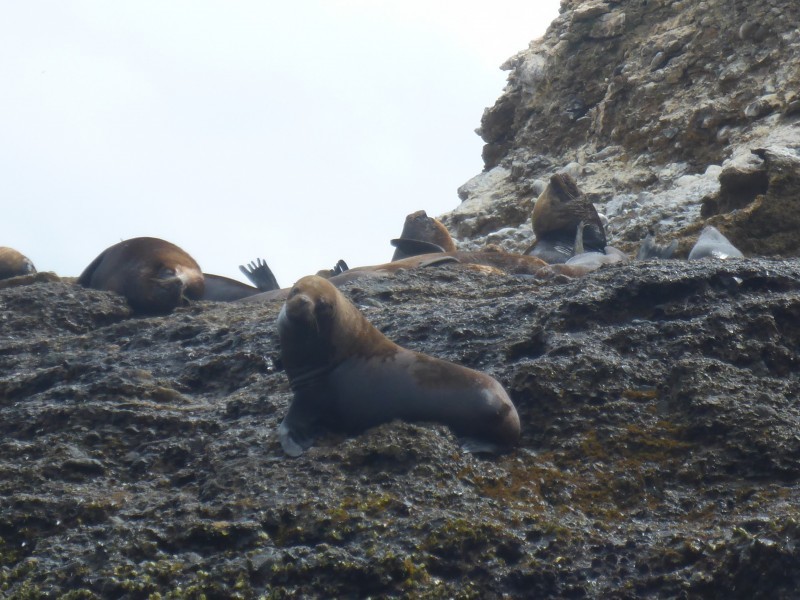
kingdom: Animalia
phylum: Chordata
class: Mammalia
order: Carnivora
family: Otariidae
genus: Otaria
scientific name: Otaria byronia
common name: South american sea lion
